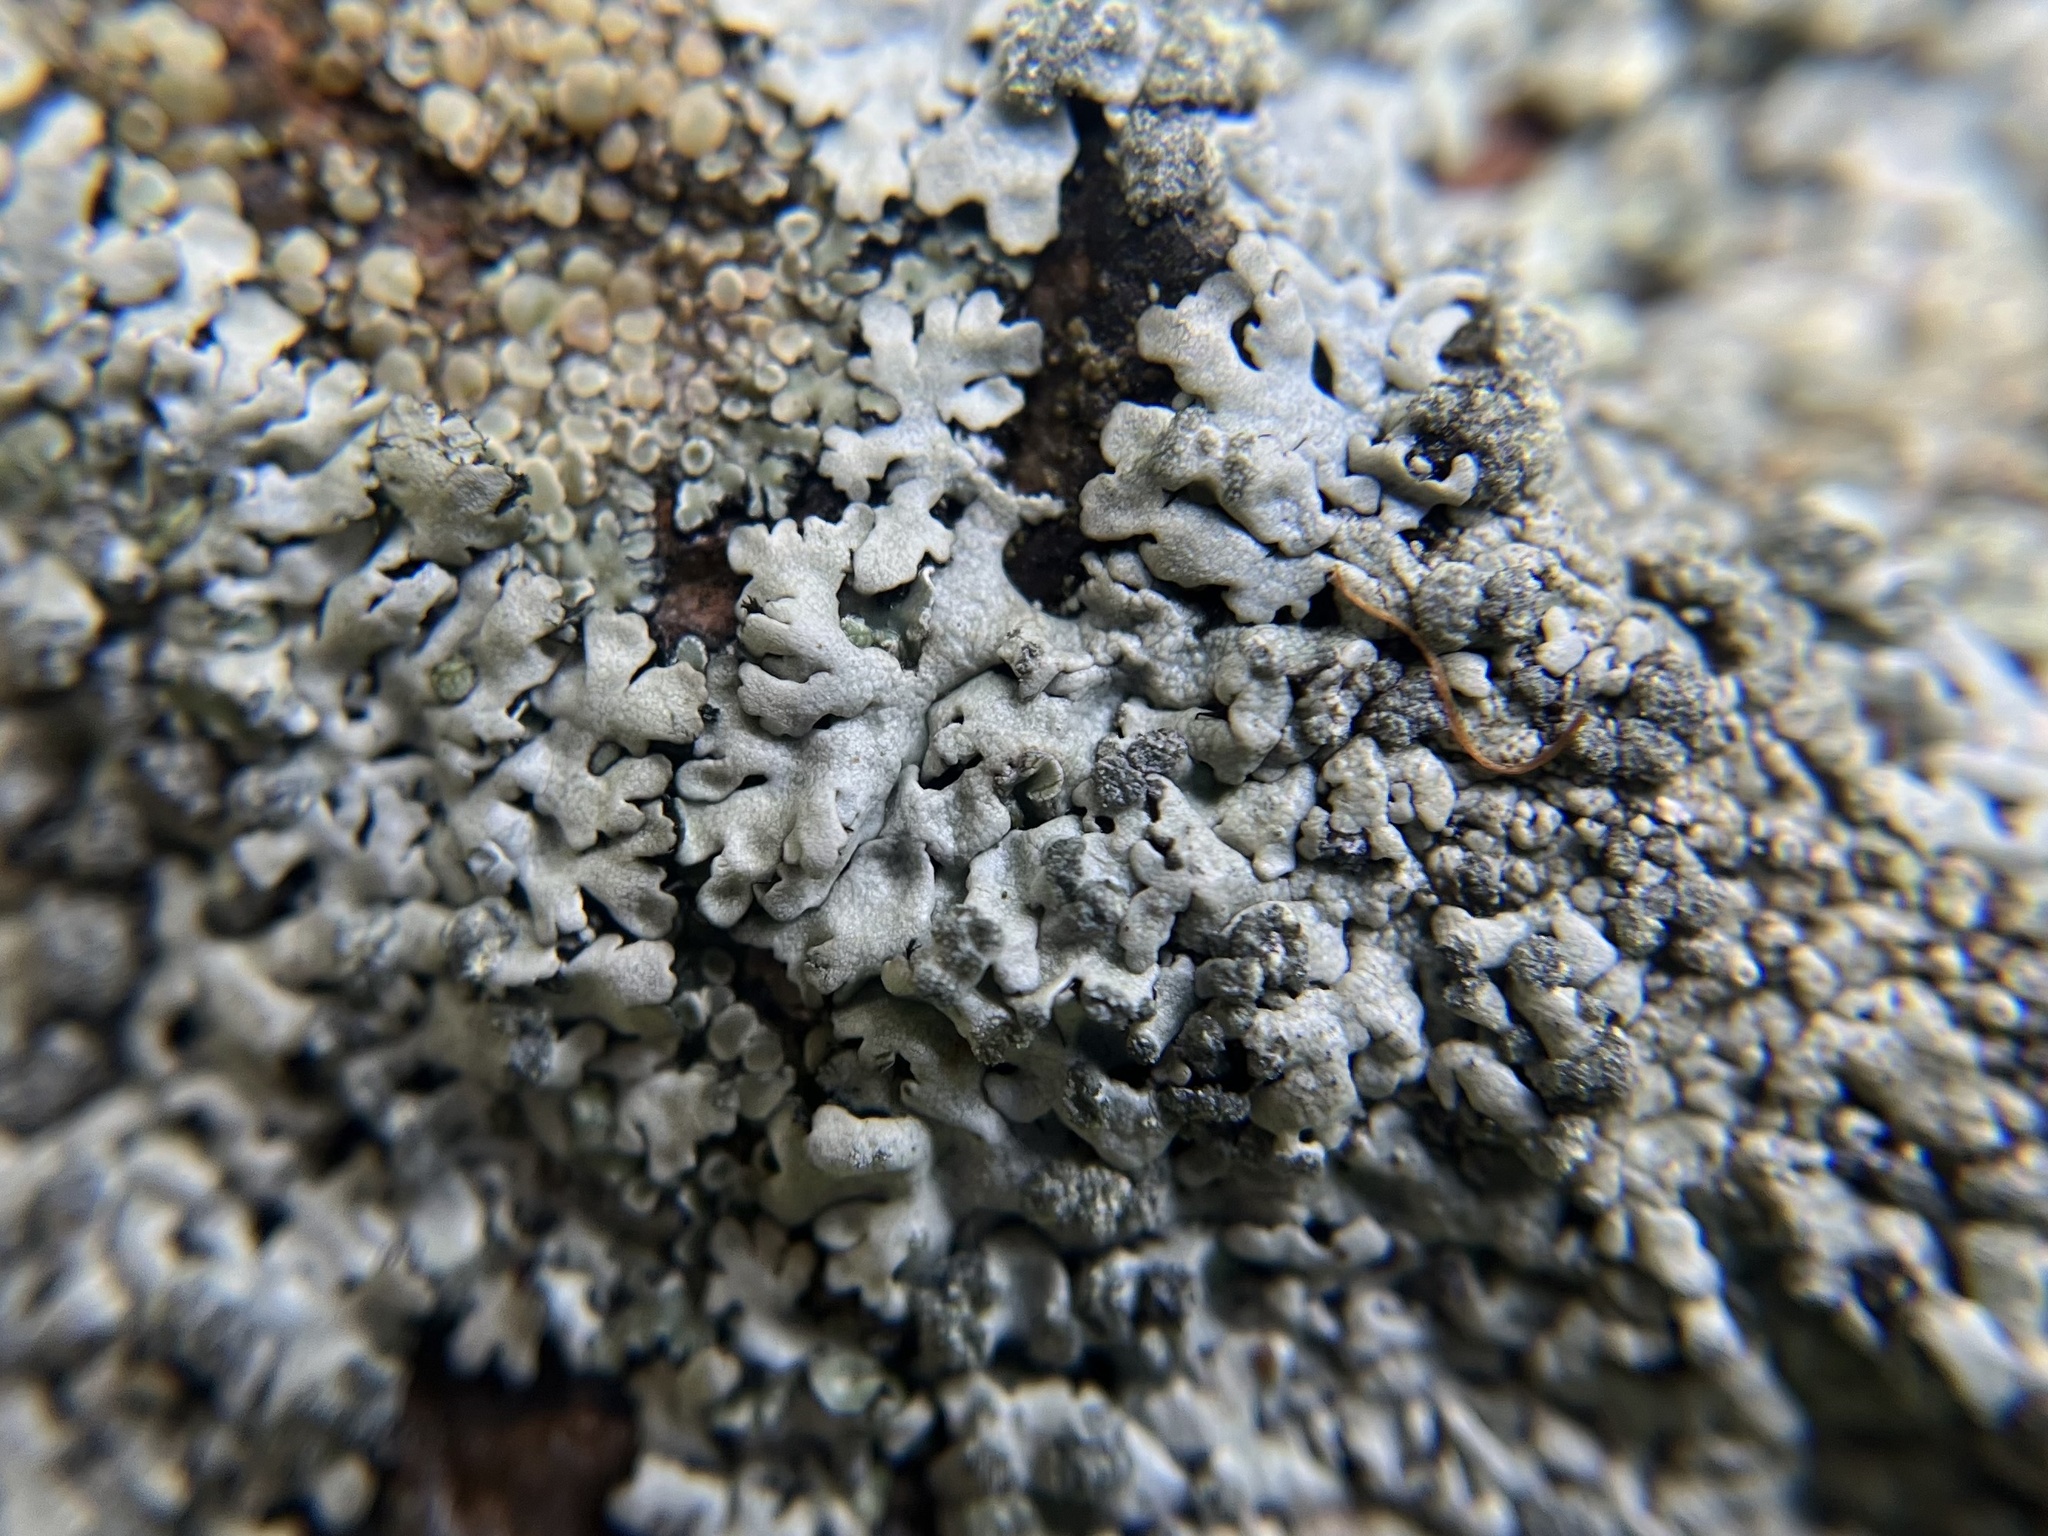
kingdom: Fungi
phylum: Ascomycota
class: Lecanoromycetes
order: Caliciales
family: Physciaceae
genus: Physcia
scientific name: Physcia caesia
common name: Blue-gray rosette lichen
